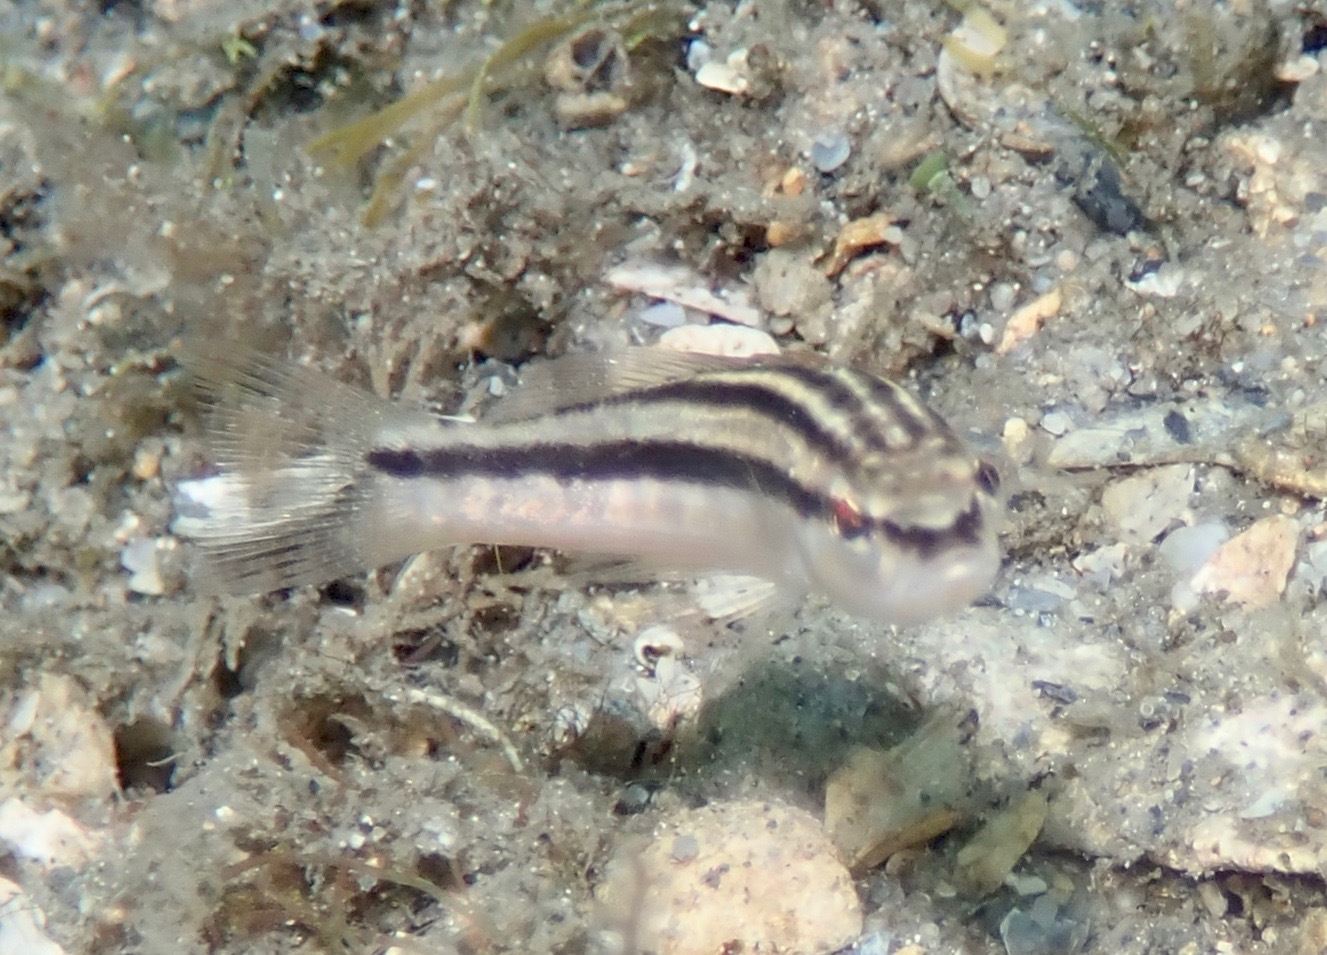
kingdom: Animalia
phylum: Chordata
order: Perciformes
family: Serranidae
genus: Diplectrum
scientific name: Diplectrum bivittatum
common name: Dwarf sand perch
